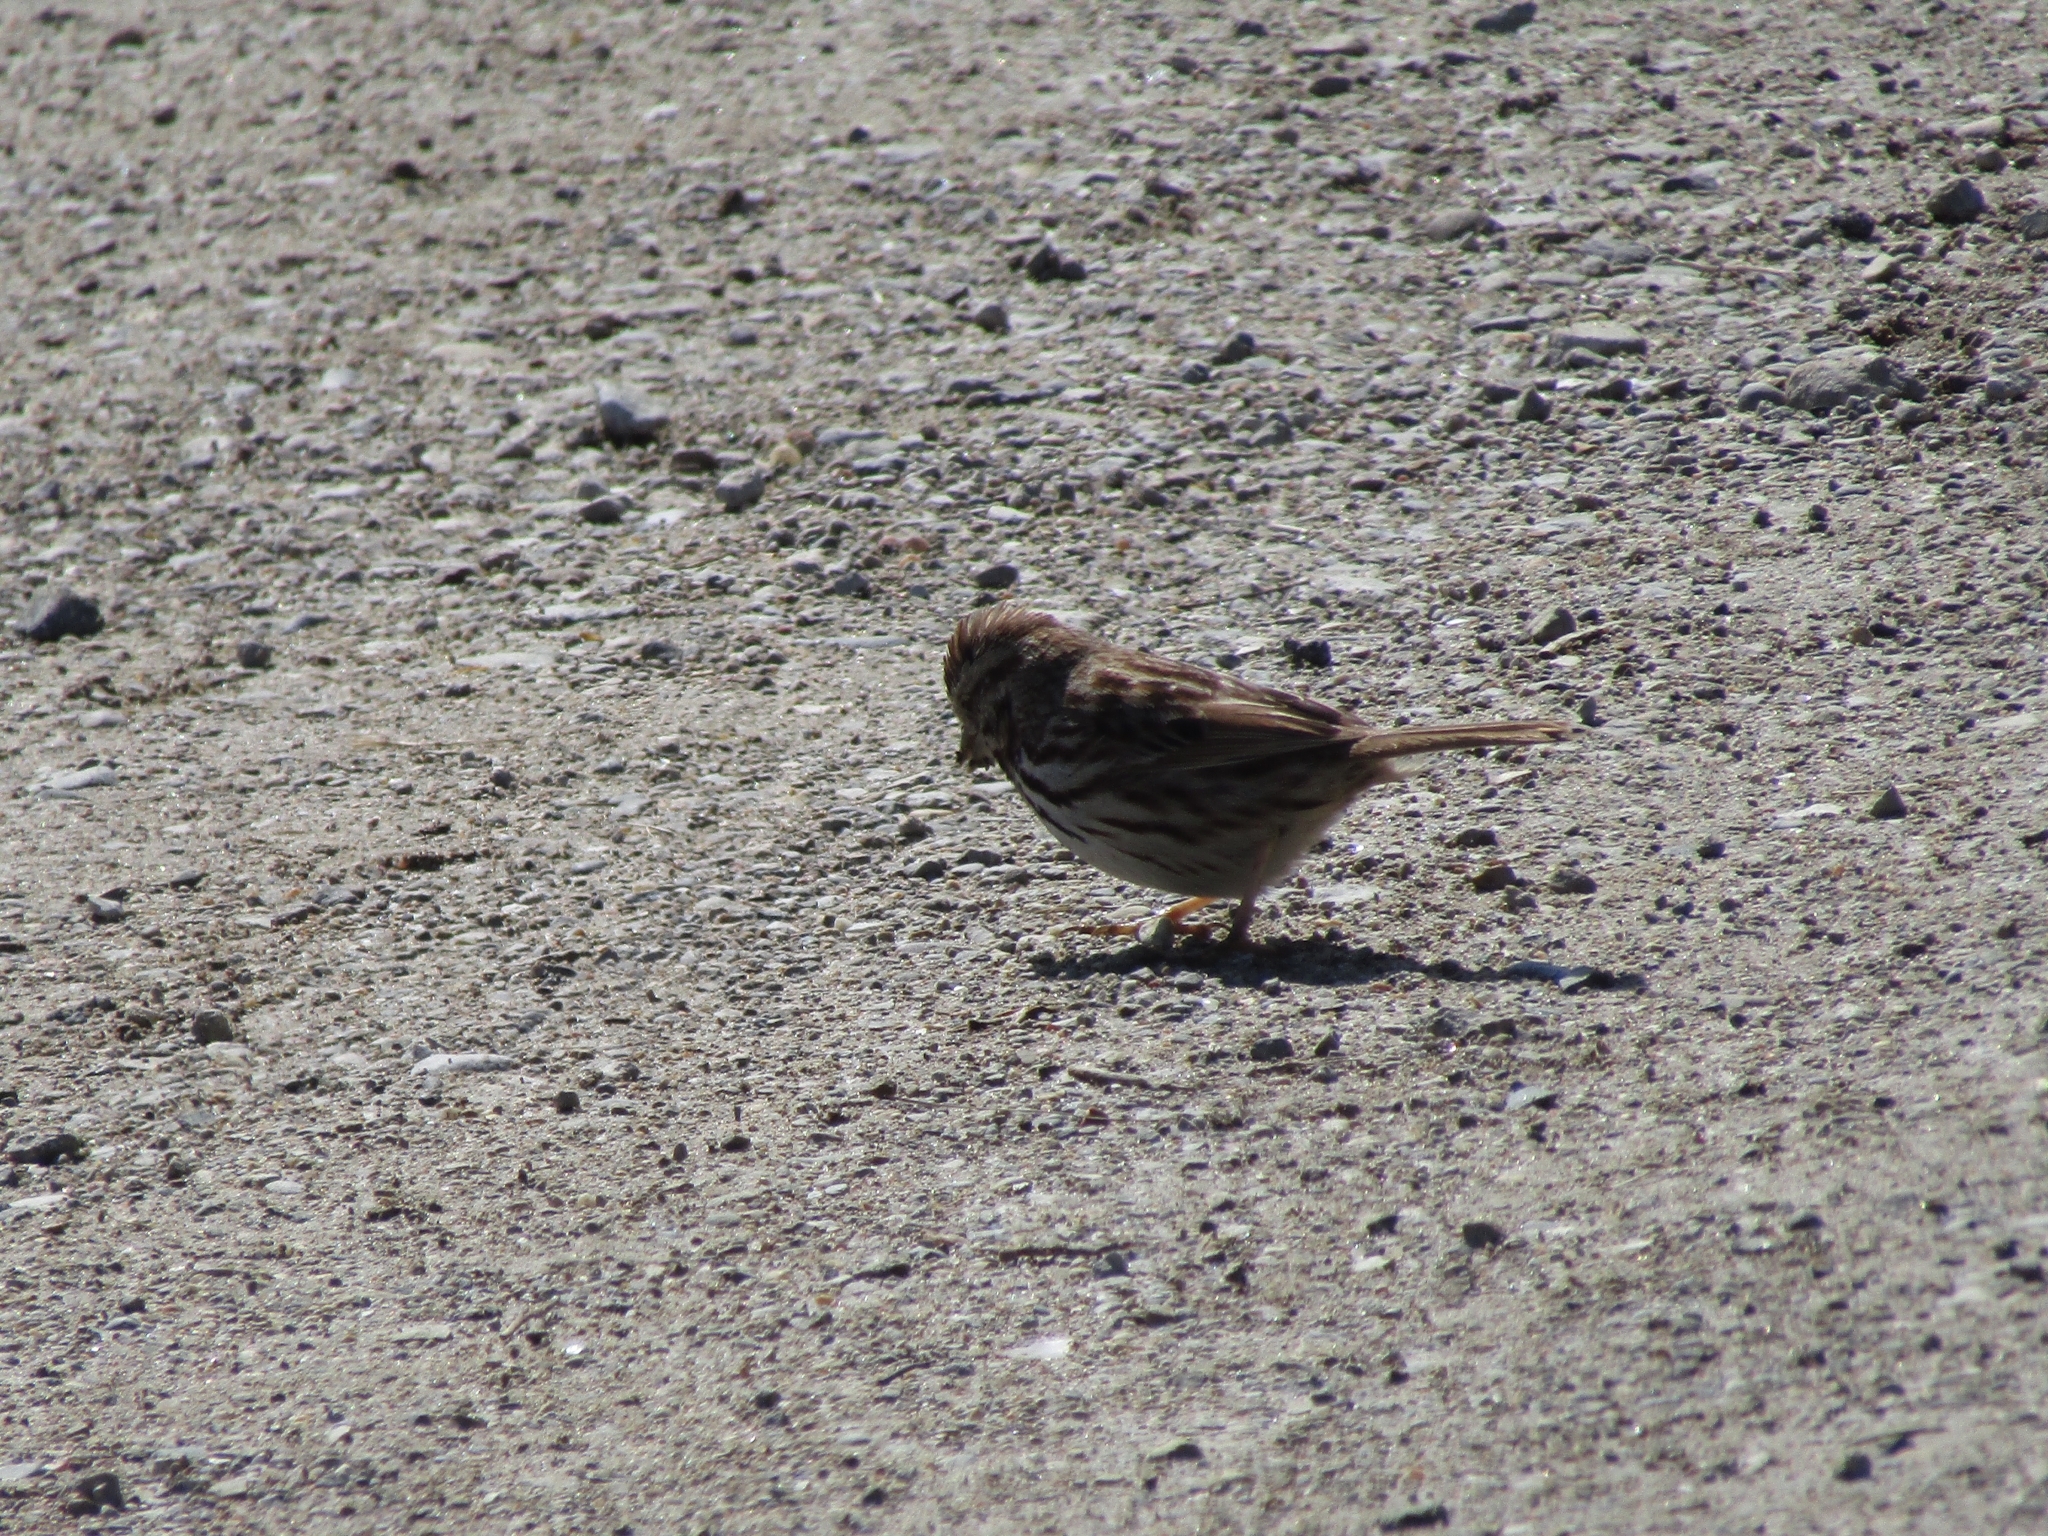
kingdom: Animalia
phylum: Chordata
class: Aves
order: Passeriformes
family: Passerellidae
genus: Melospiza
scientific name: Melospiza melodia
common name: Song sparrow
